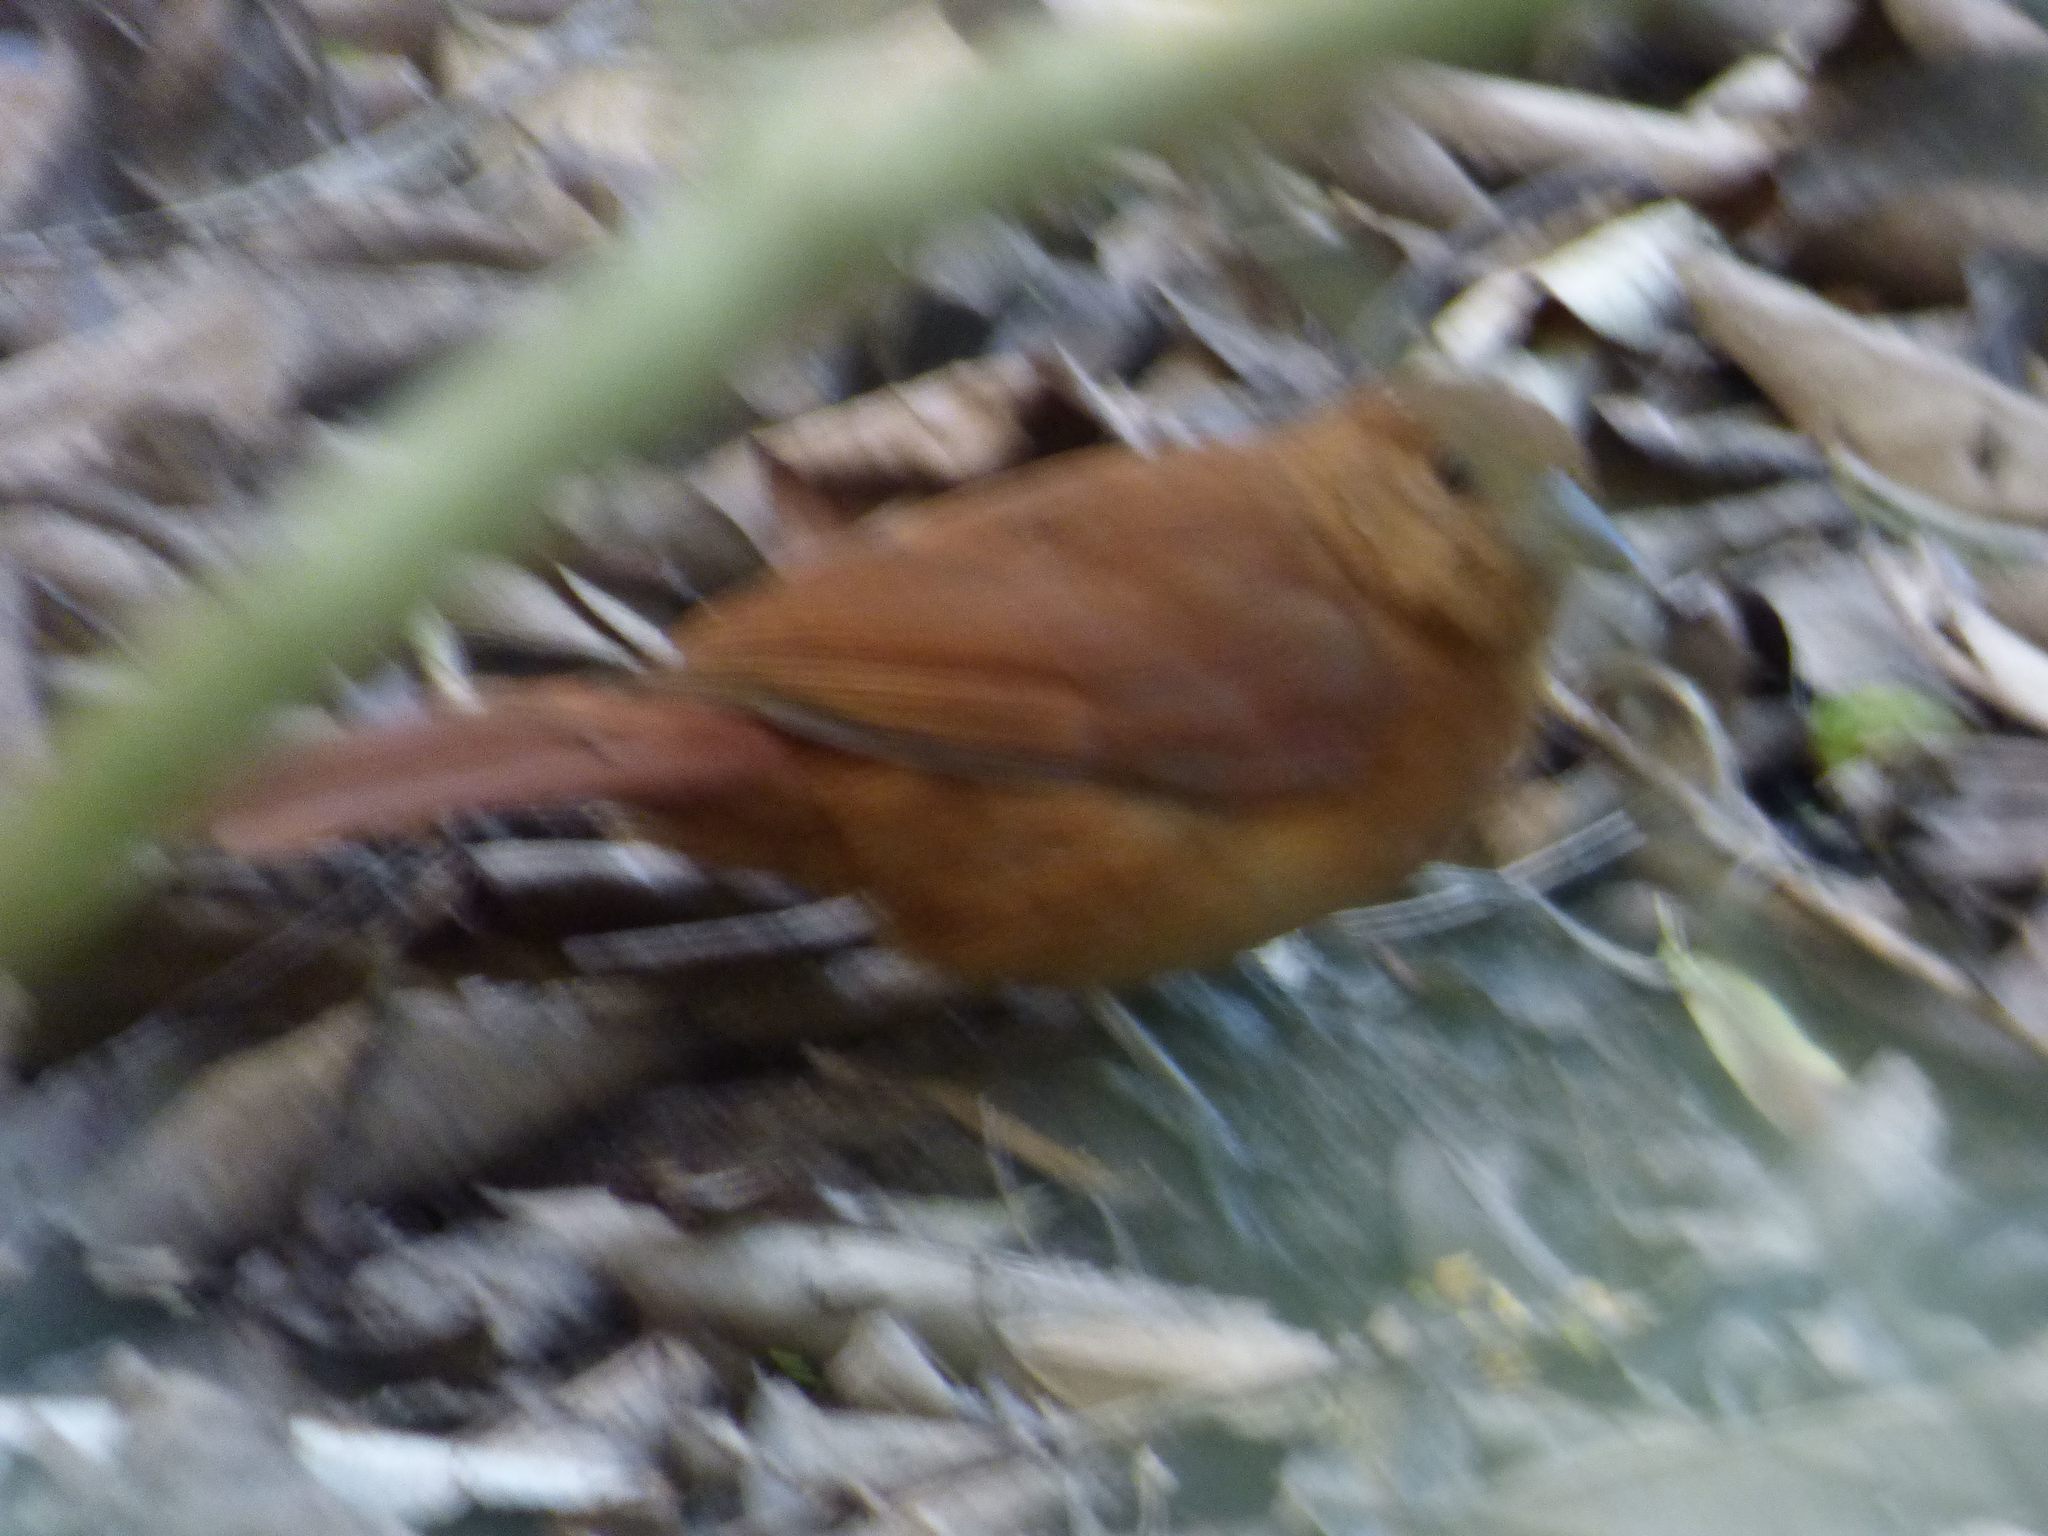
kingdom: Animalia
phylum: Chordata
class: Aves
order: Passeriformes
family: Thraupidae
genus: Tachyphonus
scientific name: Tachyphonus rufus
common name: White-lined tanager
